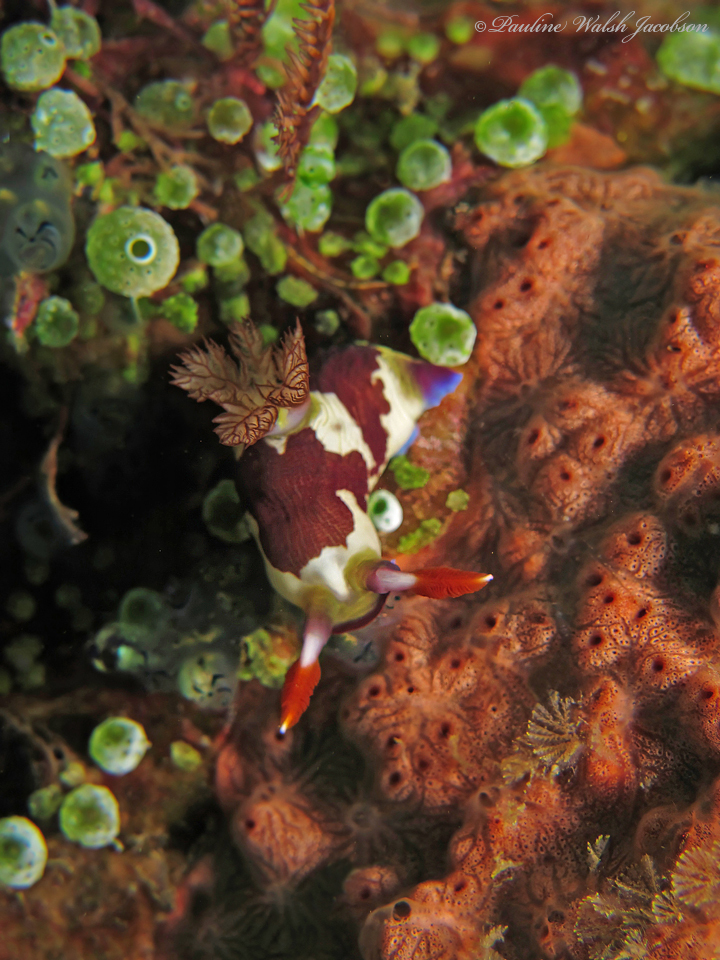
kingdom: Animalia
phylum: Mollusca
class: Gastropoda
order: Nudibranchia
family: Polyceridae
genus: Nembrotha
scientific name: Nembrotha chamberlaini
